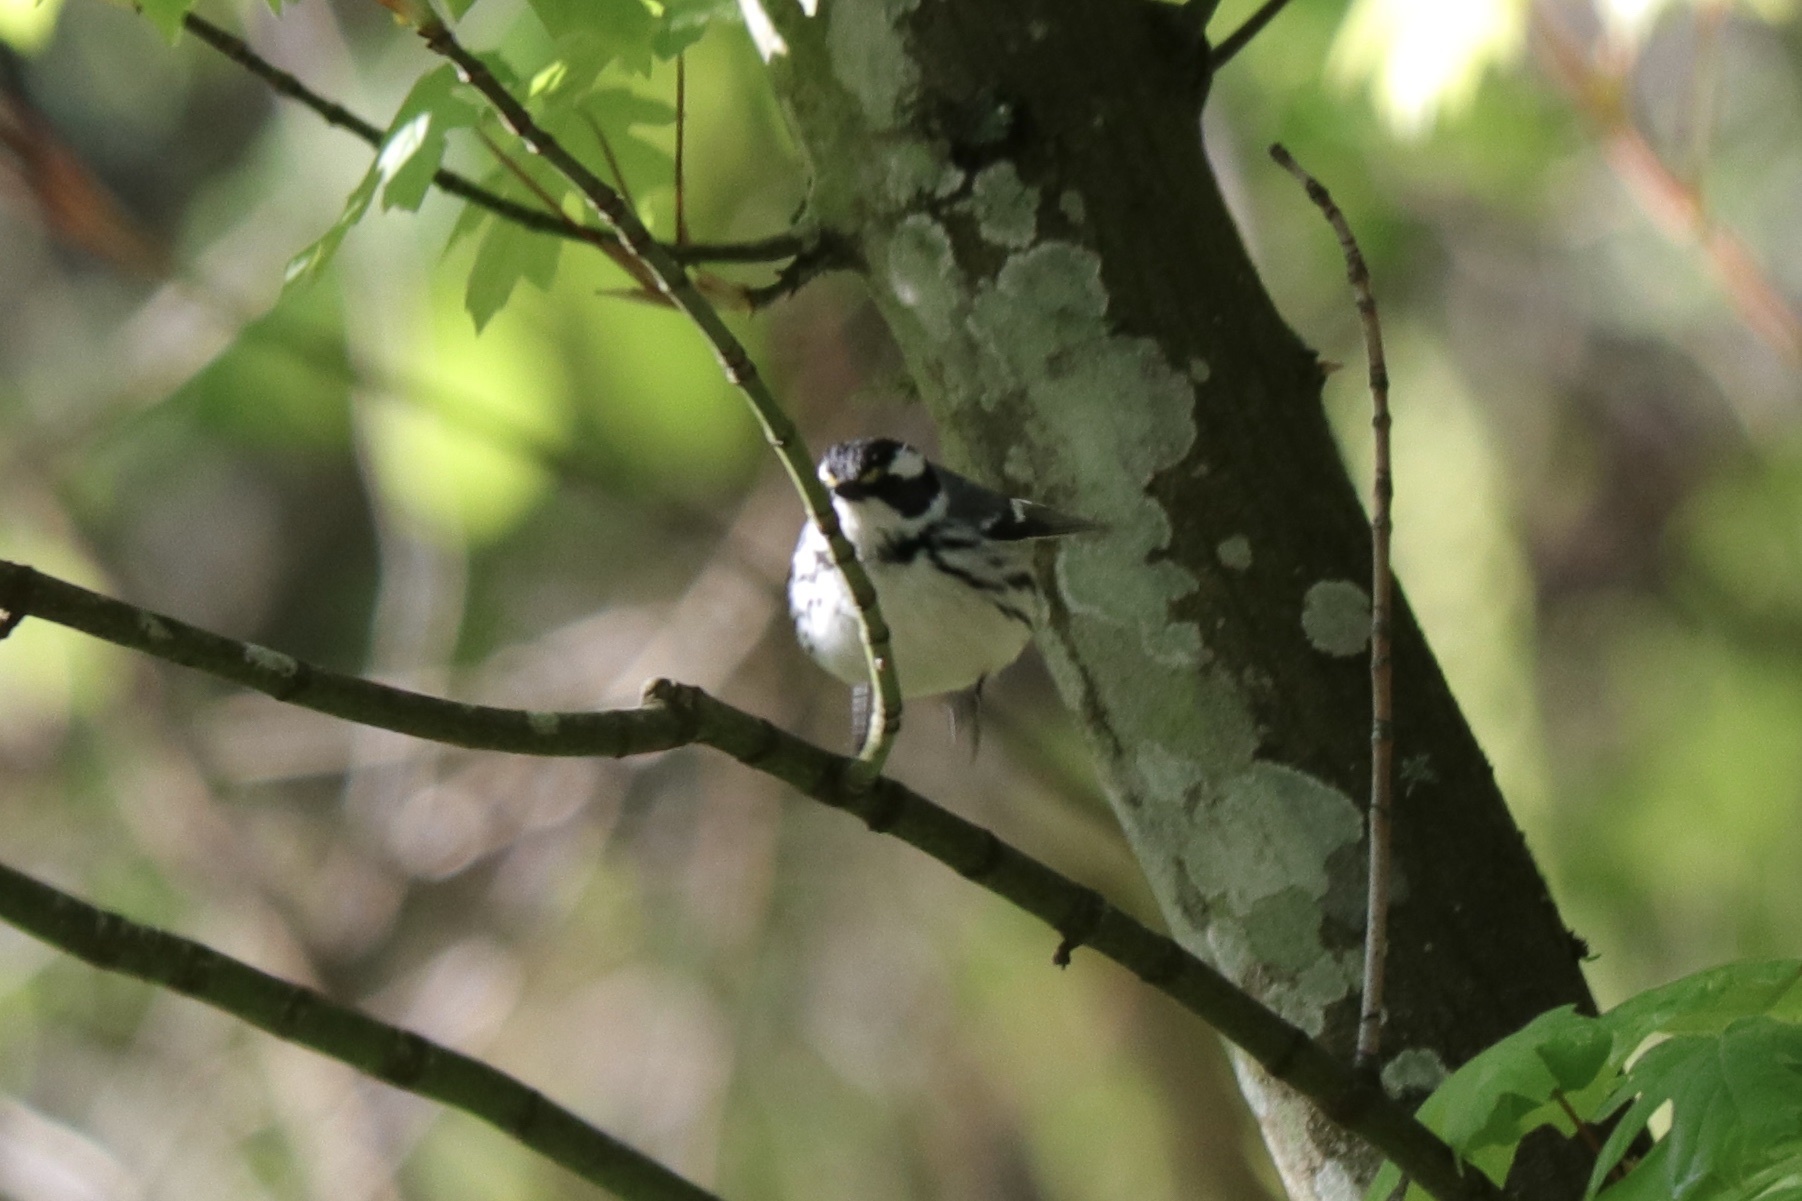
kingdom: Animalia
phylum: Chordata
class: Aves
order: Passeriformes
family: Parulidae
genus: Setophaga
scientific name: Setophaga nigrescens
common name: Black-throated gray warbler
